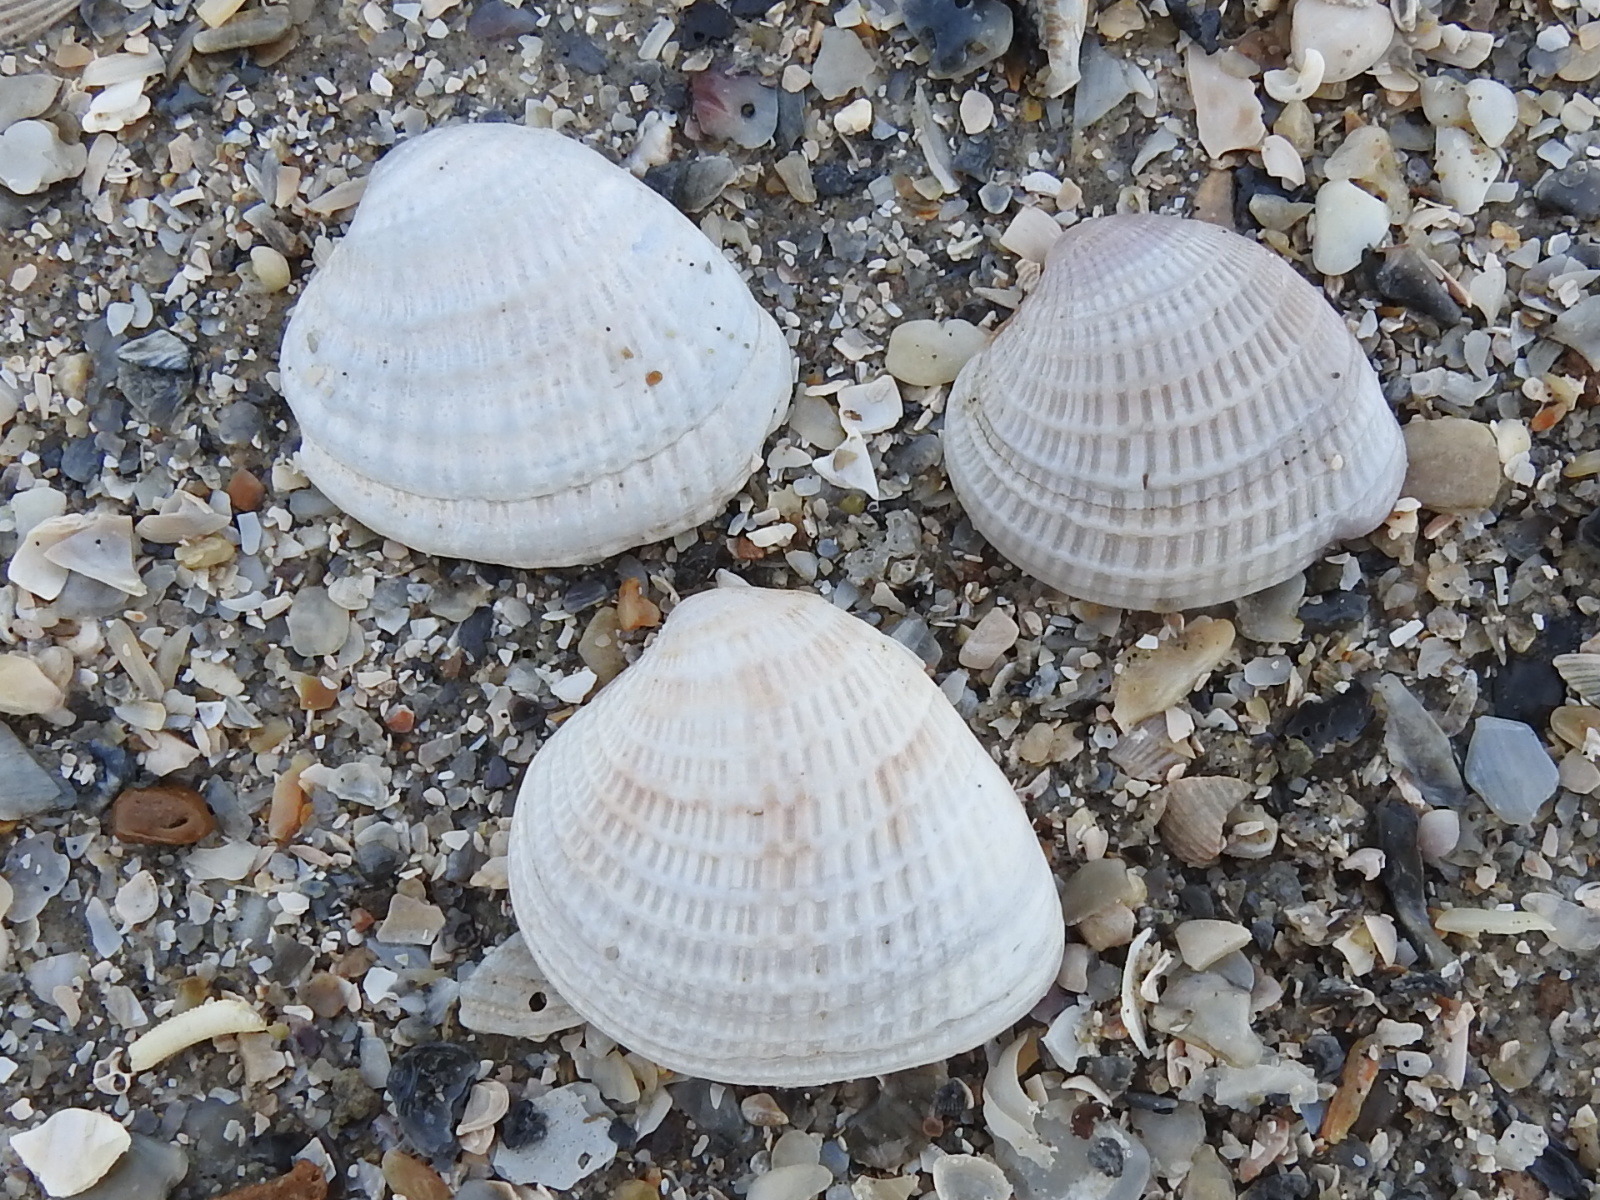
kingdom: Animalia
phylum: Mollusca
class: Bivalvia
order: Venerida
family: Veneridae
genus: Chione
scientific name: Chione elevata
